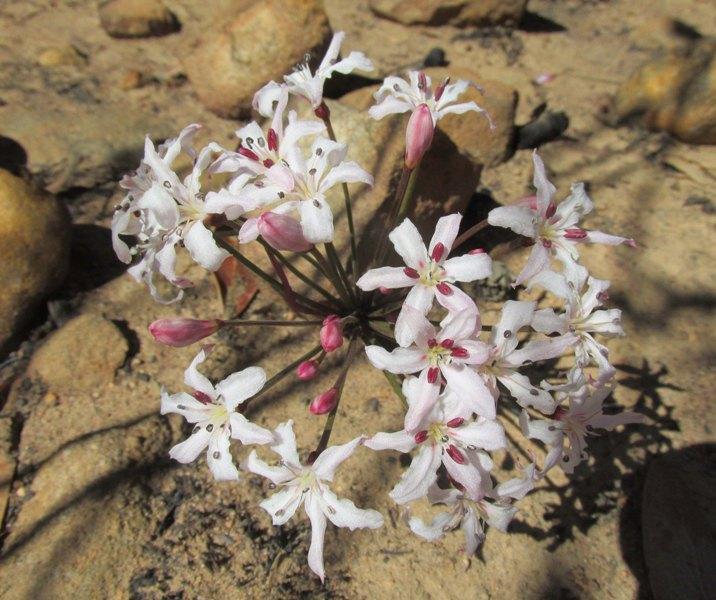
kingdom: Plantae
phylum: Tracheophyta
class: Liliopsida
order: Asparagales
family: Amaryllidaceae
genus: Hessea
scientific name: Hessea monticola
